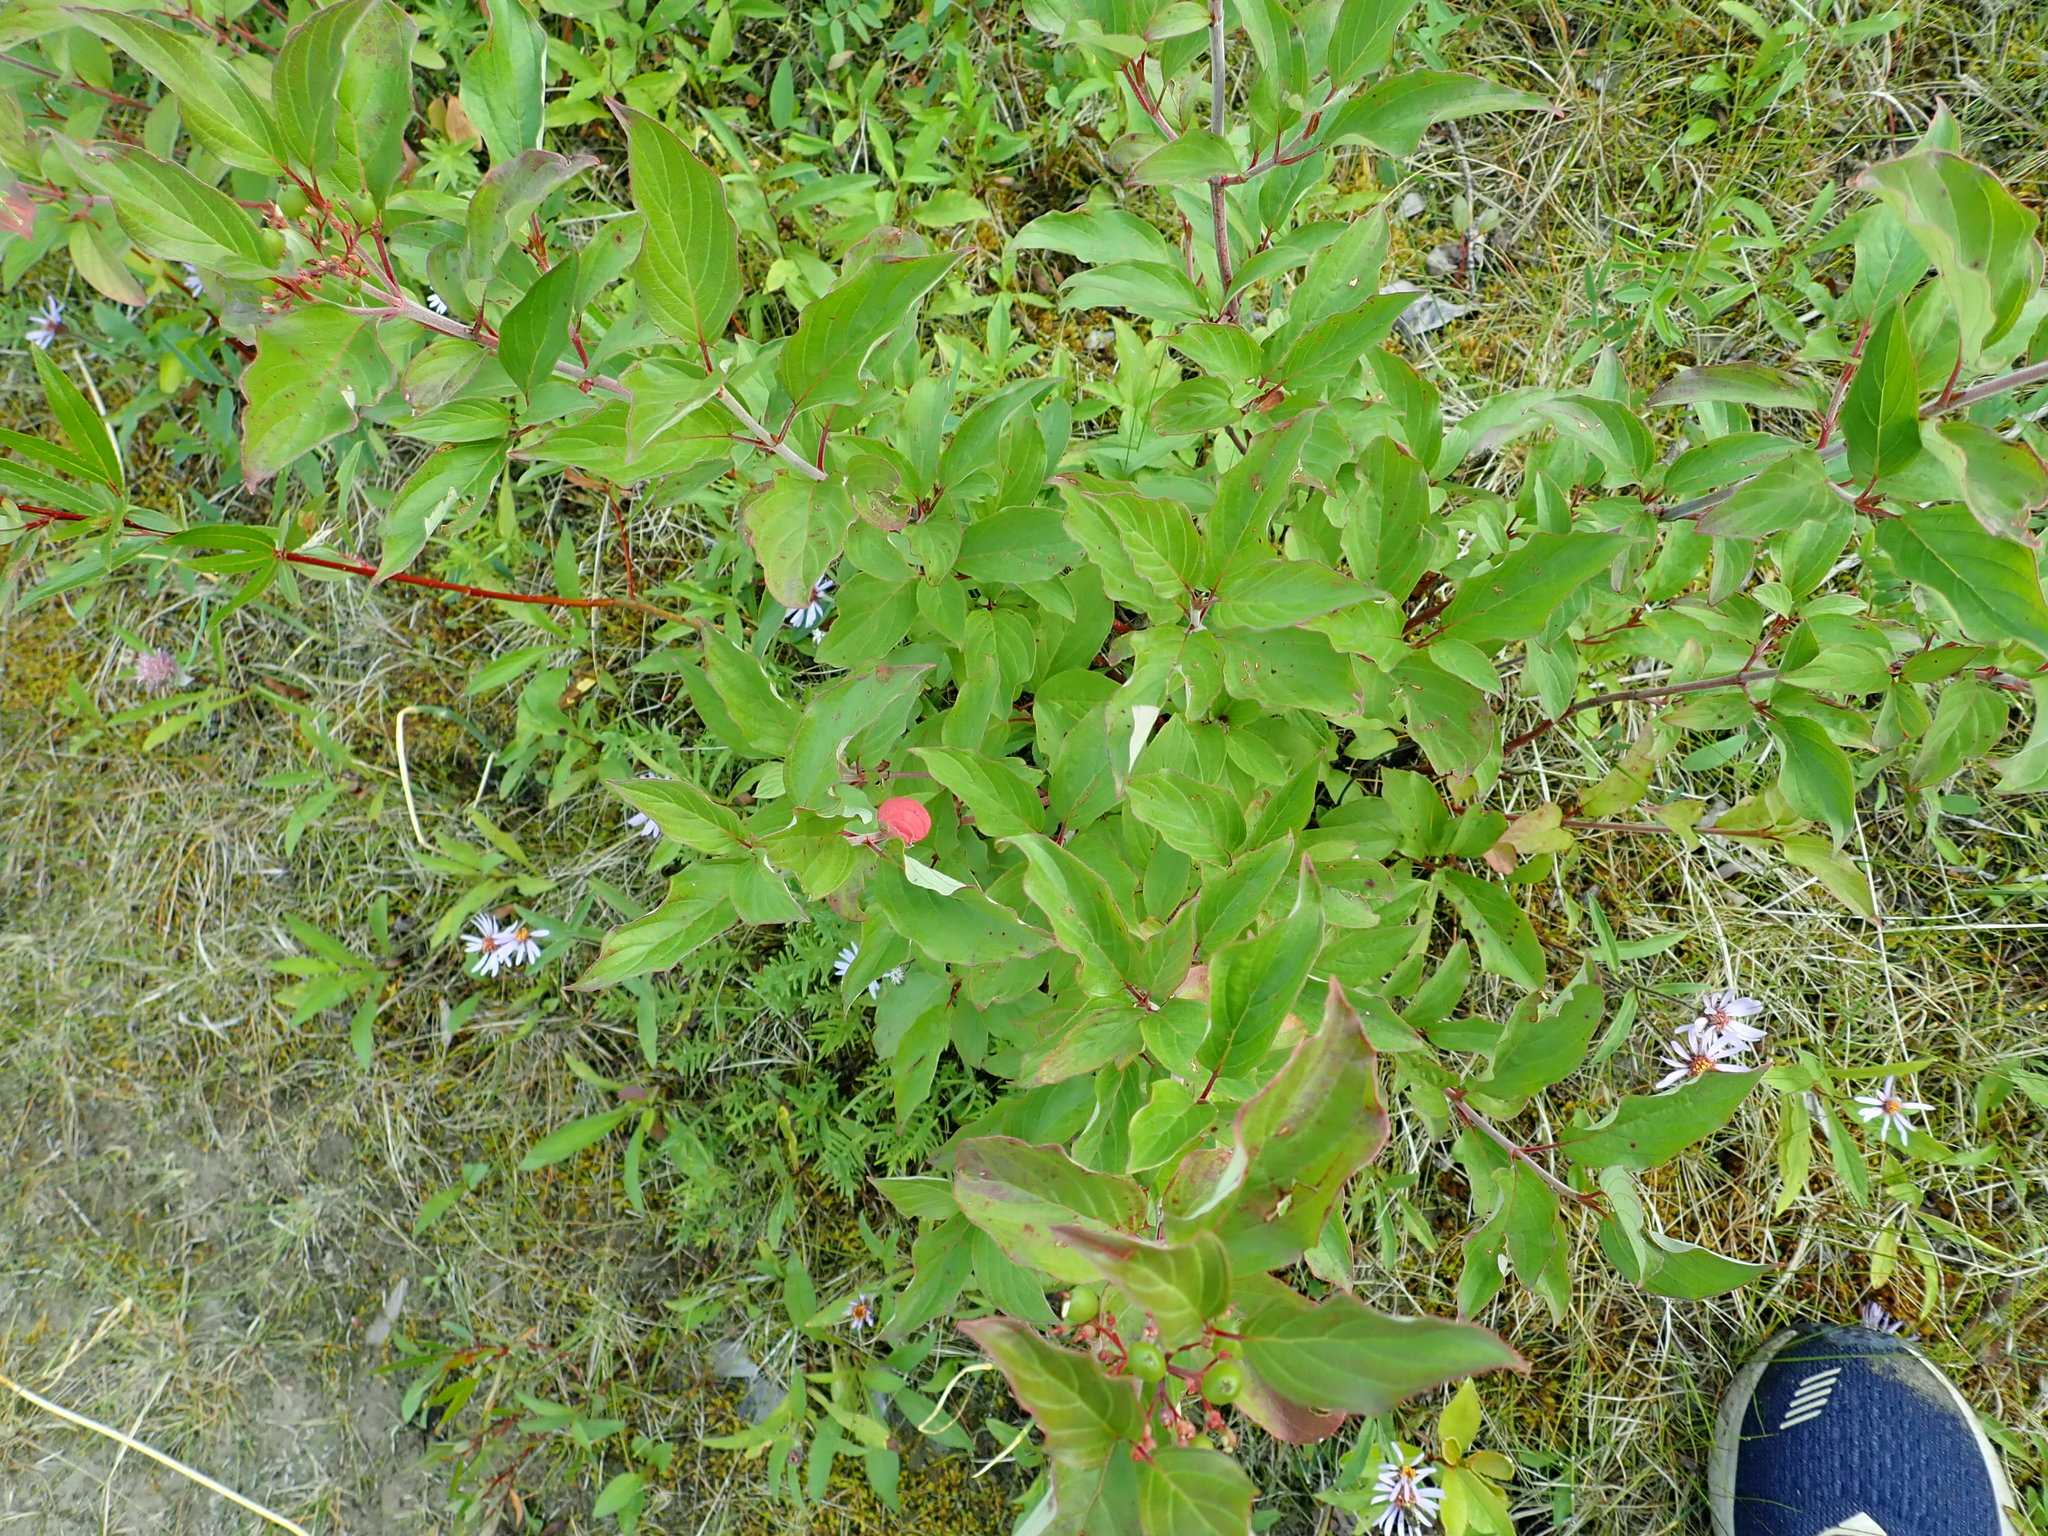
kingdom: Plantae
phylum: Tracheophyta
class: Magnoliopsida
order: Cornales
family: Cornaceae
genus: Cornus
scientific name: Cornus sericea
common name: Red-osier dogwood
